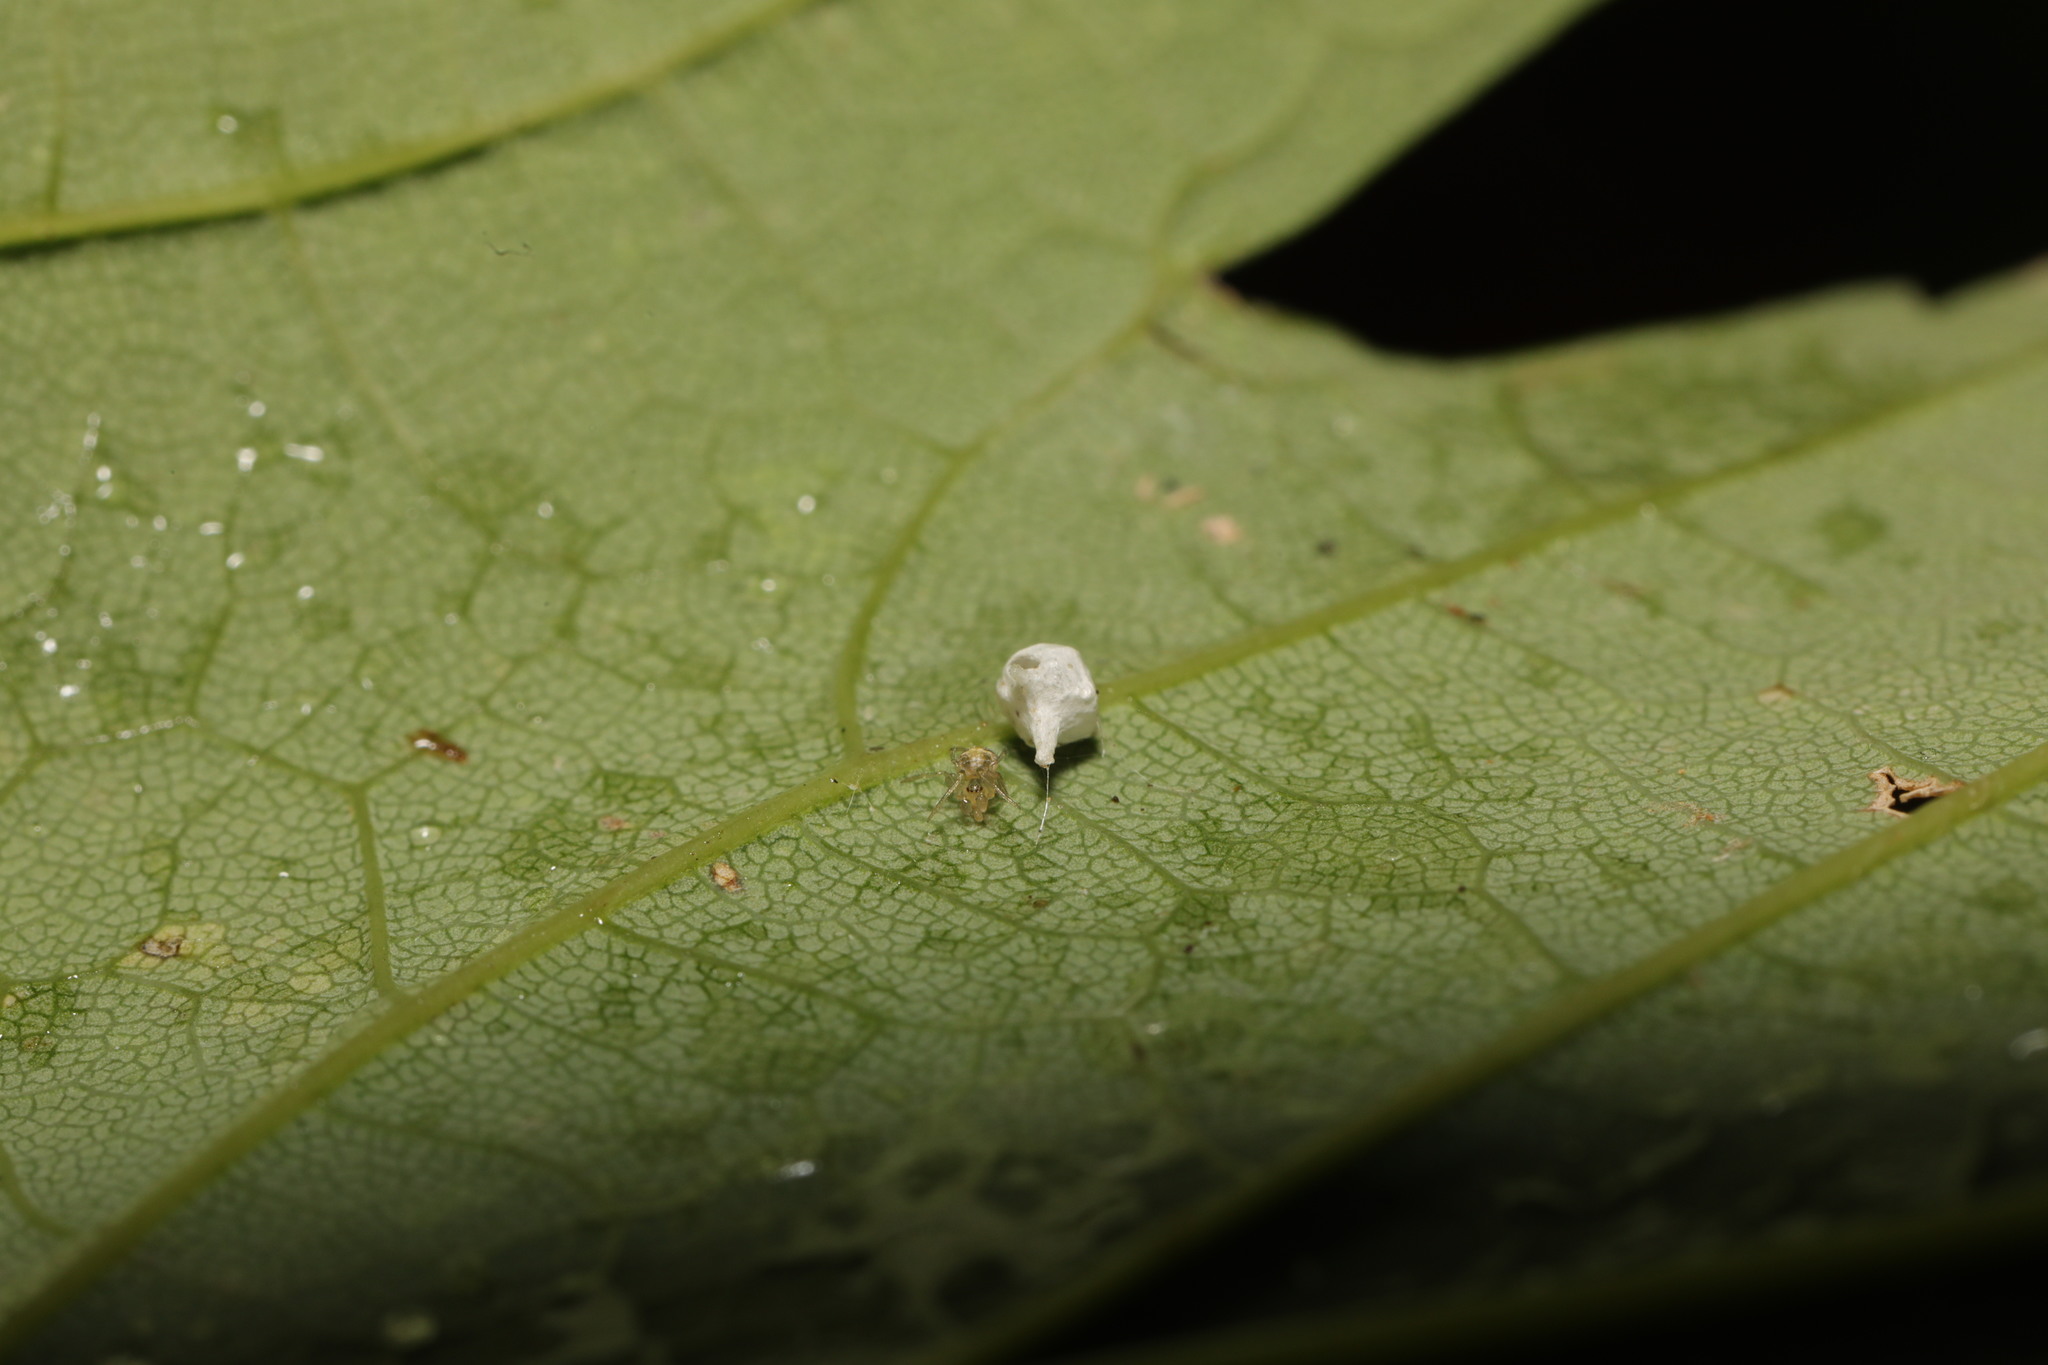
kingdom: Animalia
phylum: Arthropoda
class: Arachnida
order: Araneae
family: Theridiidae
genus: Paidiscura
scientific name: Paidiscura pallens
